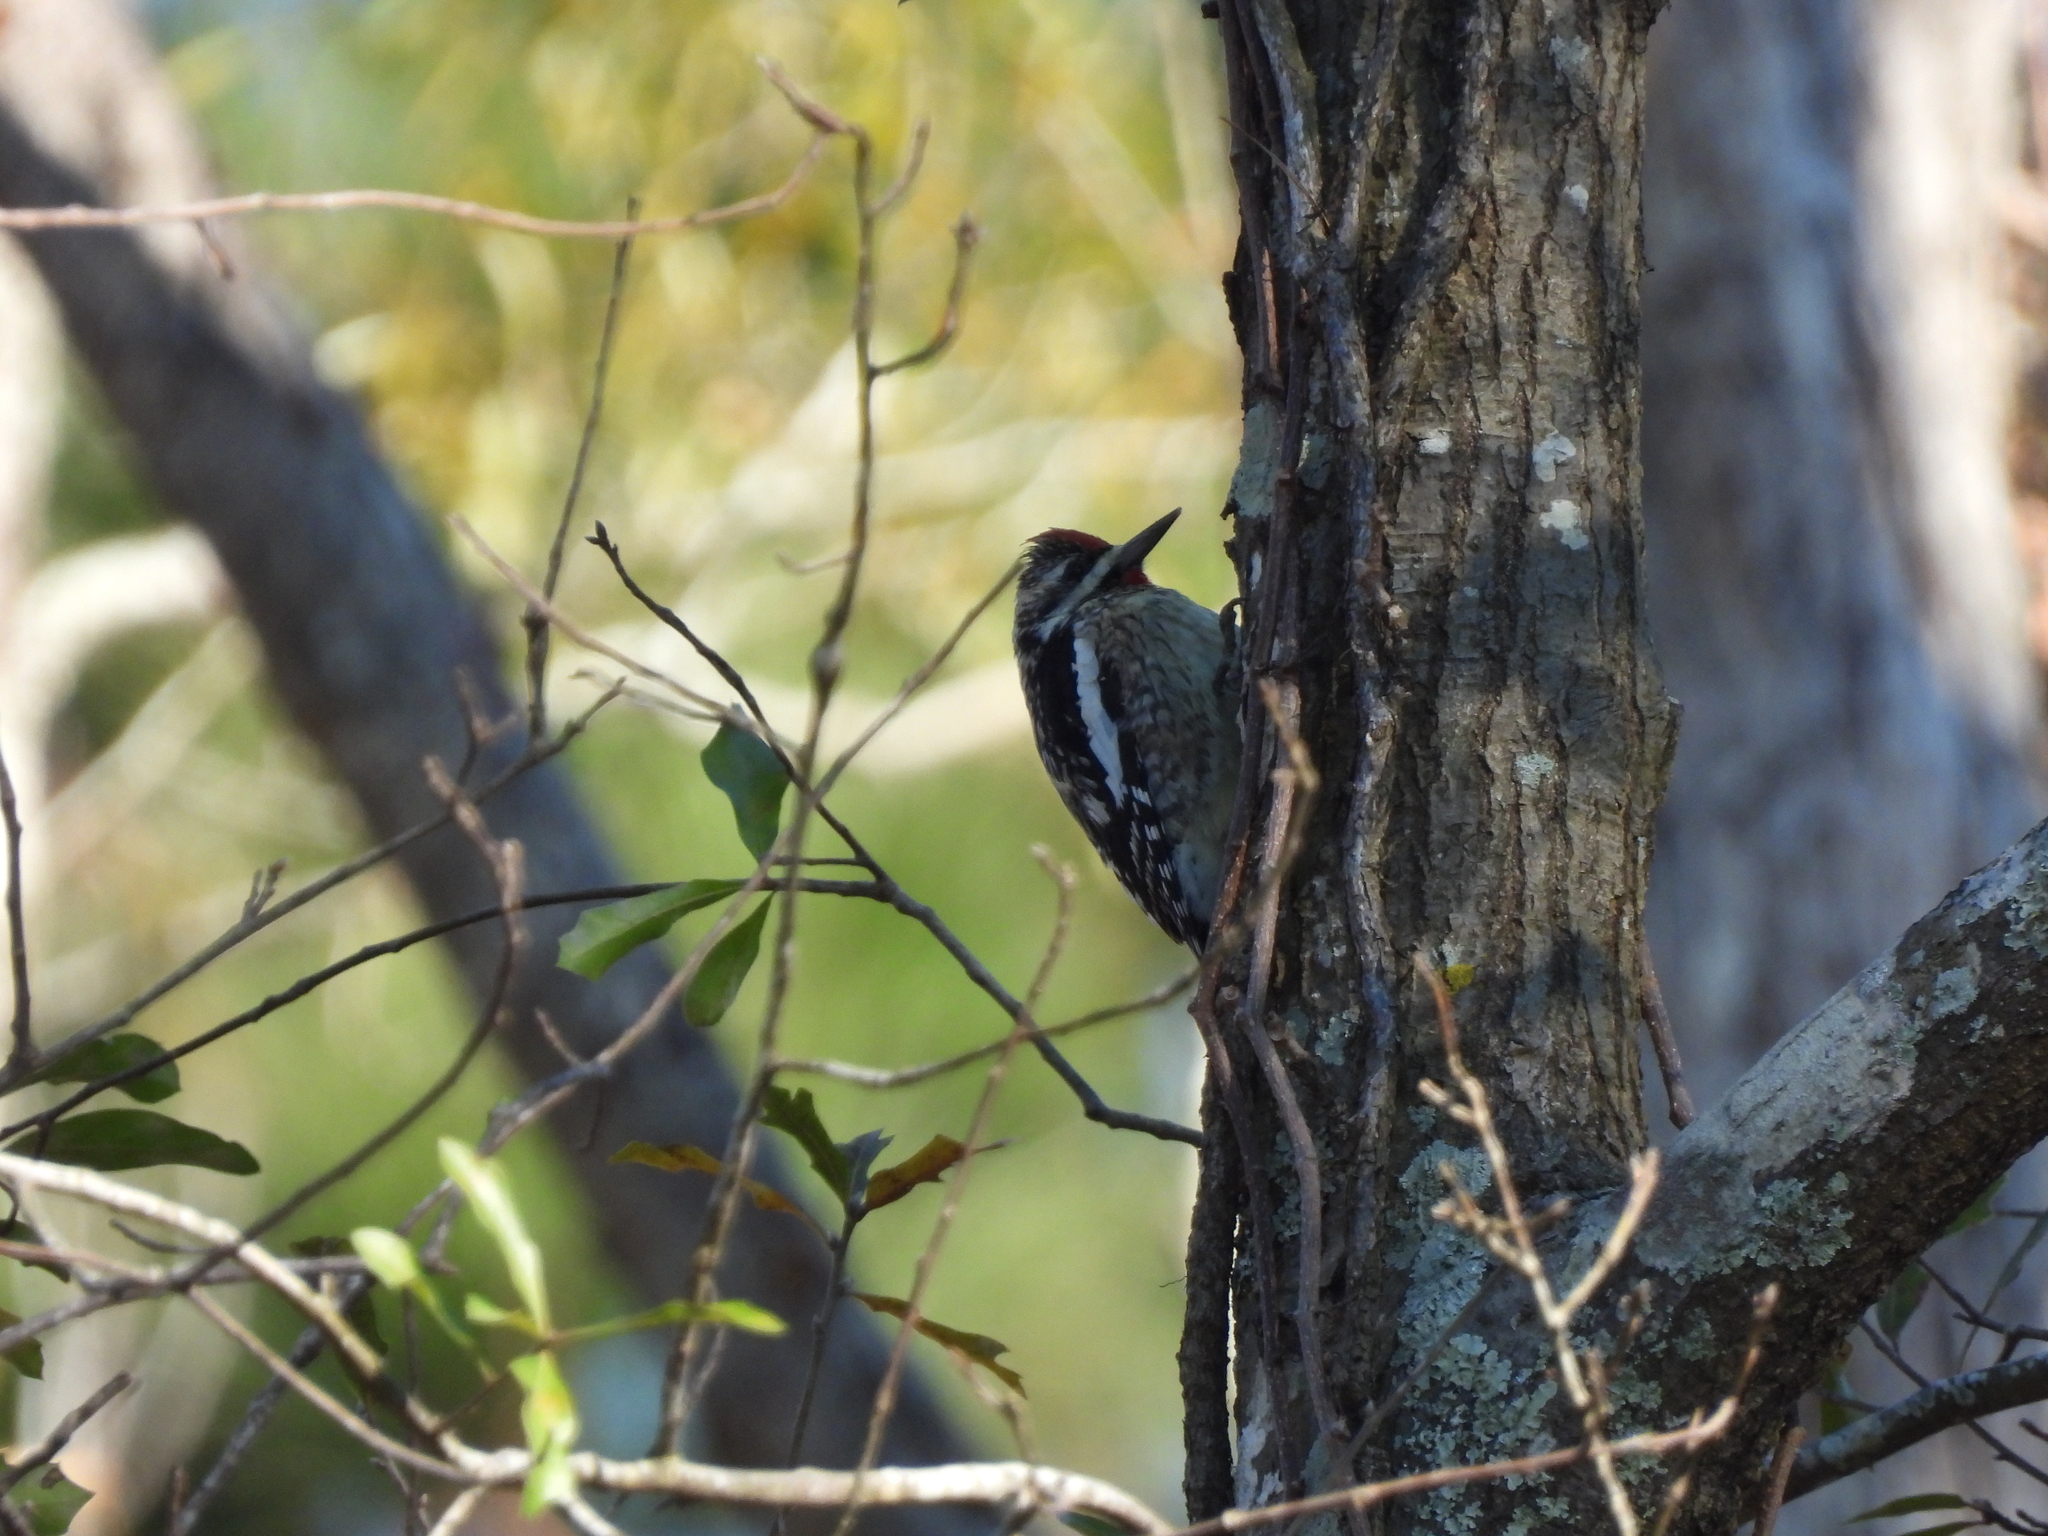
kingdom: Animalia
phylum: Chordata
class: Aves
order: Piciformes
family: Picidae
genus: Sphyrapicus
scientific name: Sphyrapicus varius
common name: Yellow-bellied sapsucker
